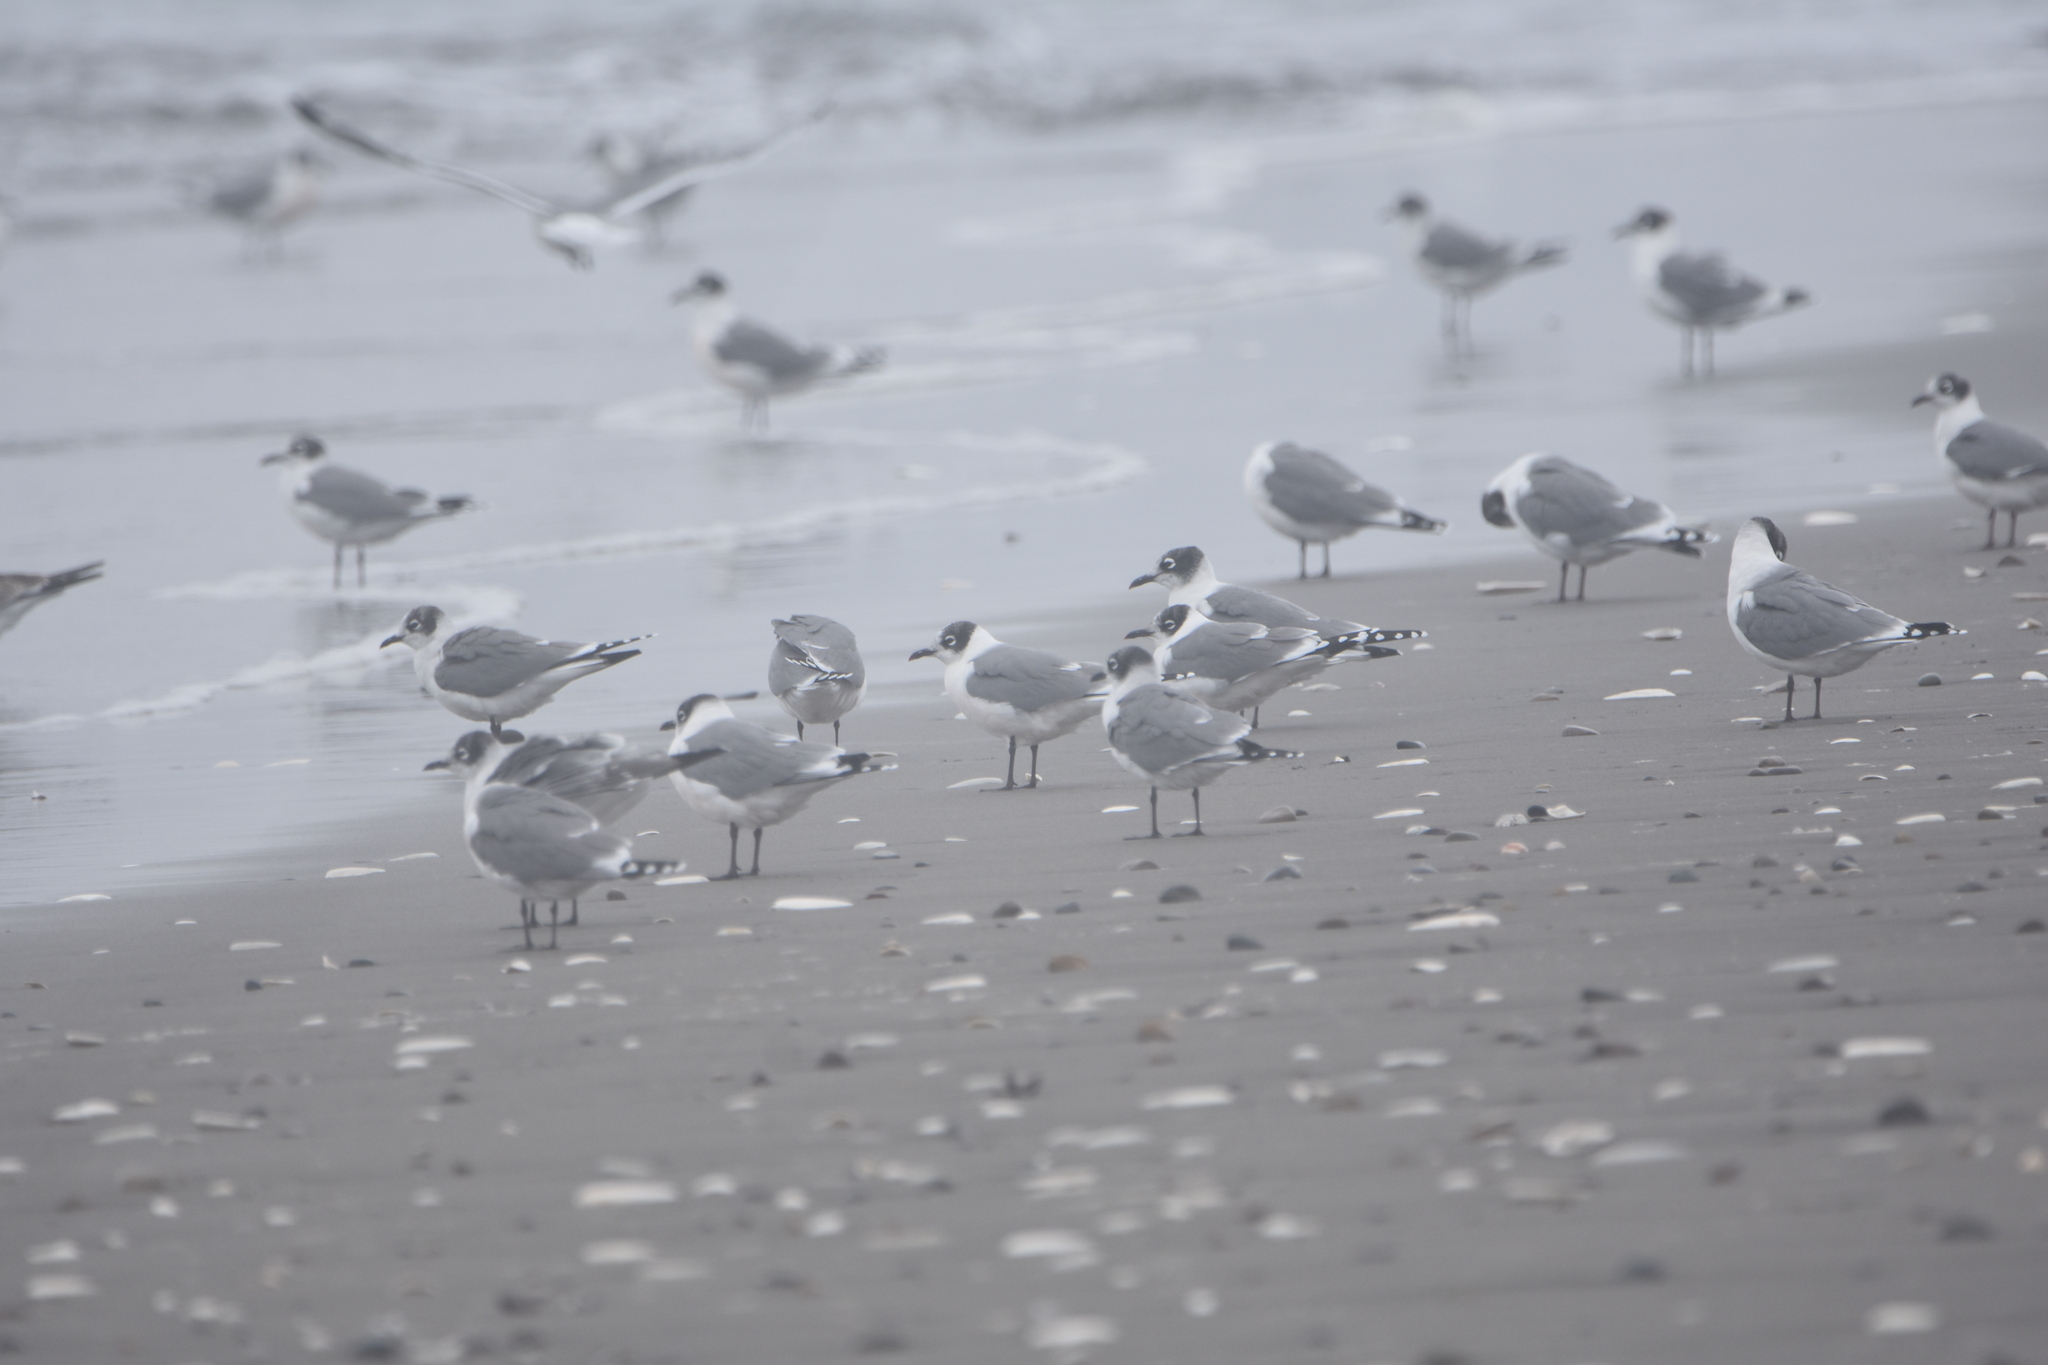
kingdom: Animalia
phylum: Chordata
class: Aves
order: Charadriiformes
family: Laridae
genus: Leucophaeus
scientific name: Leucophaeus pipixcan
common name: Franklin's gull
